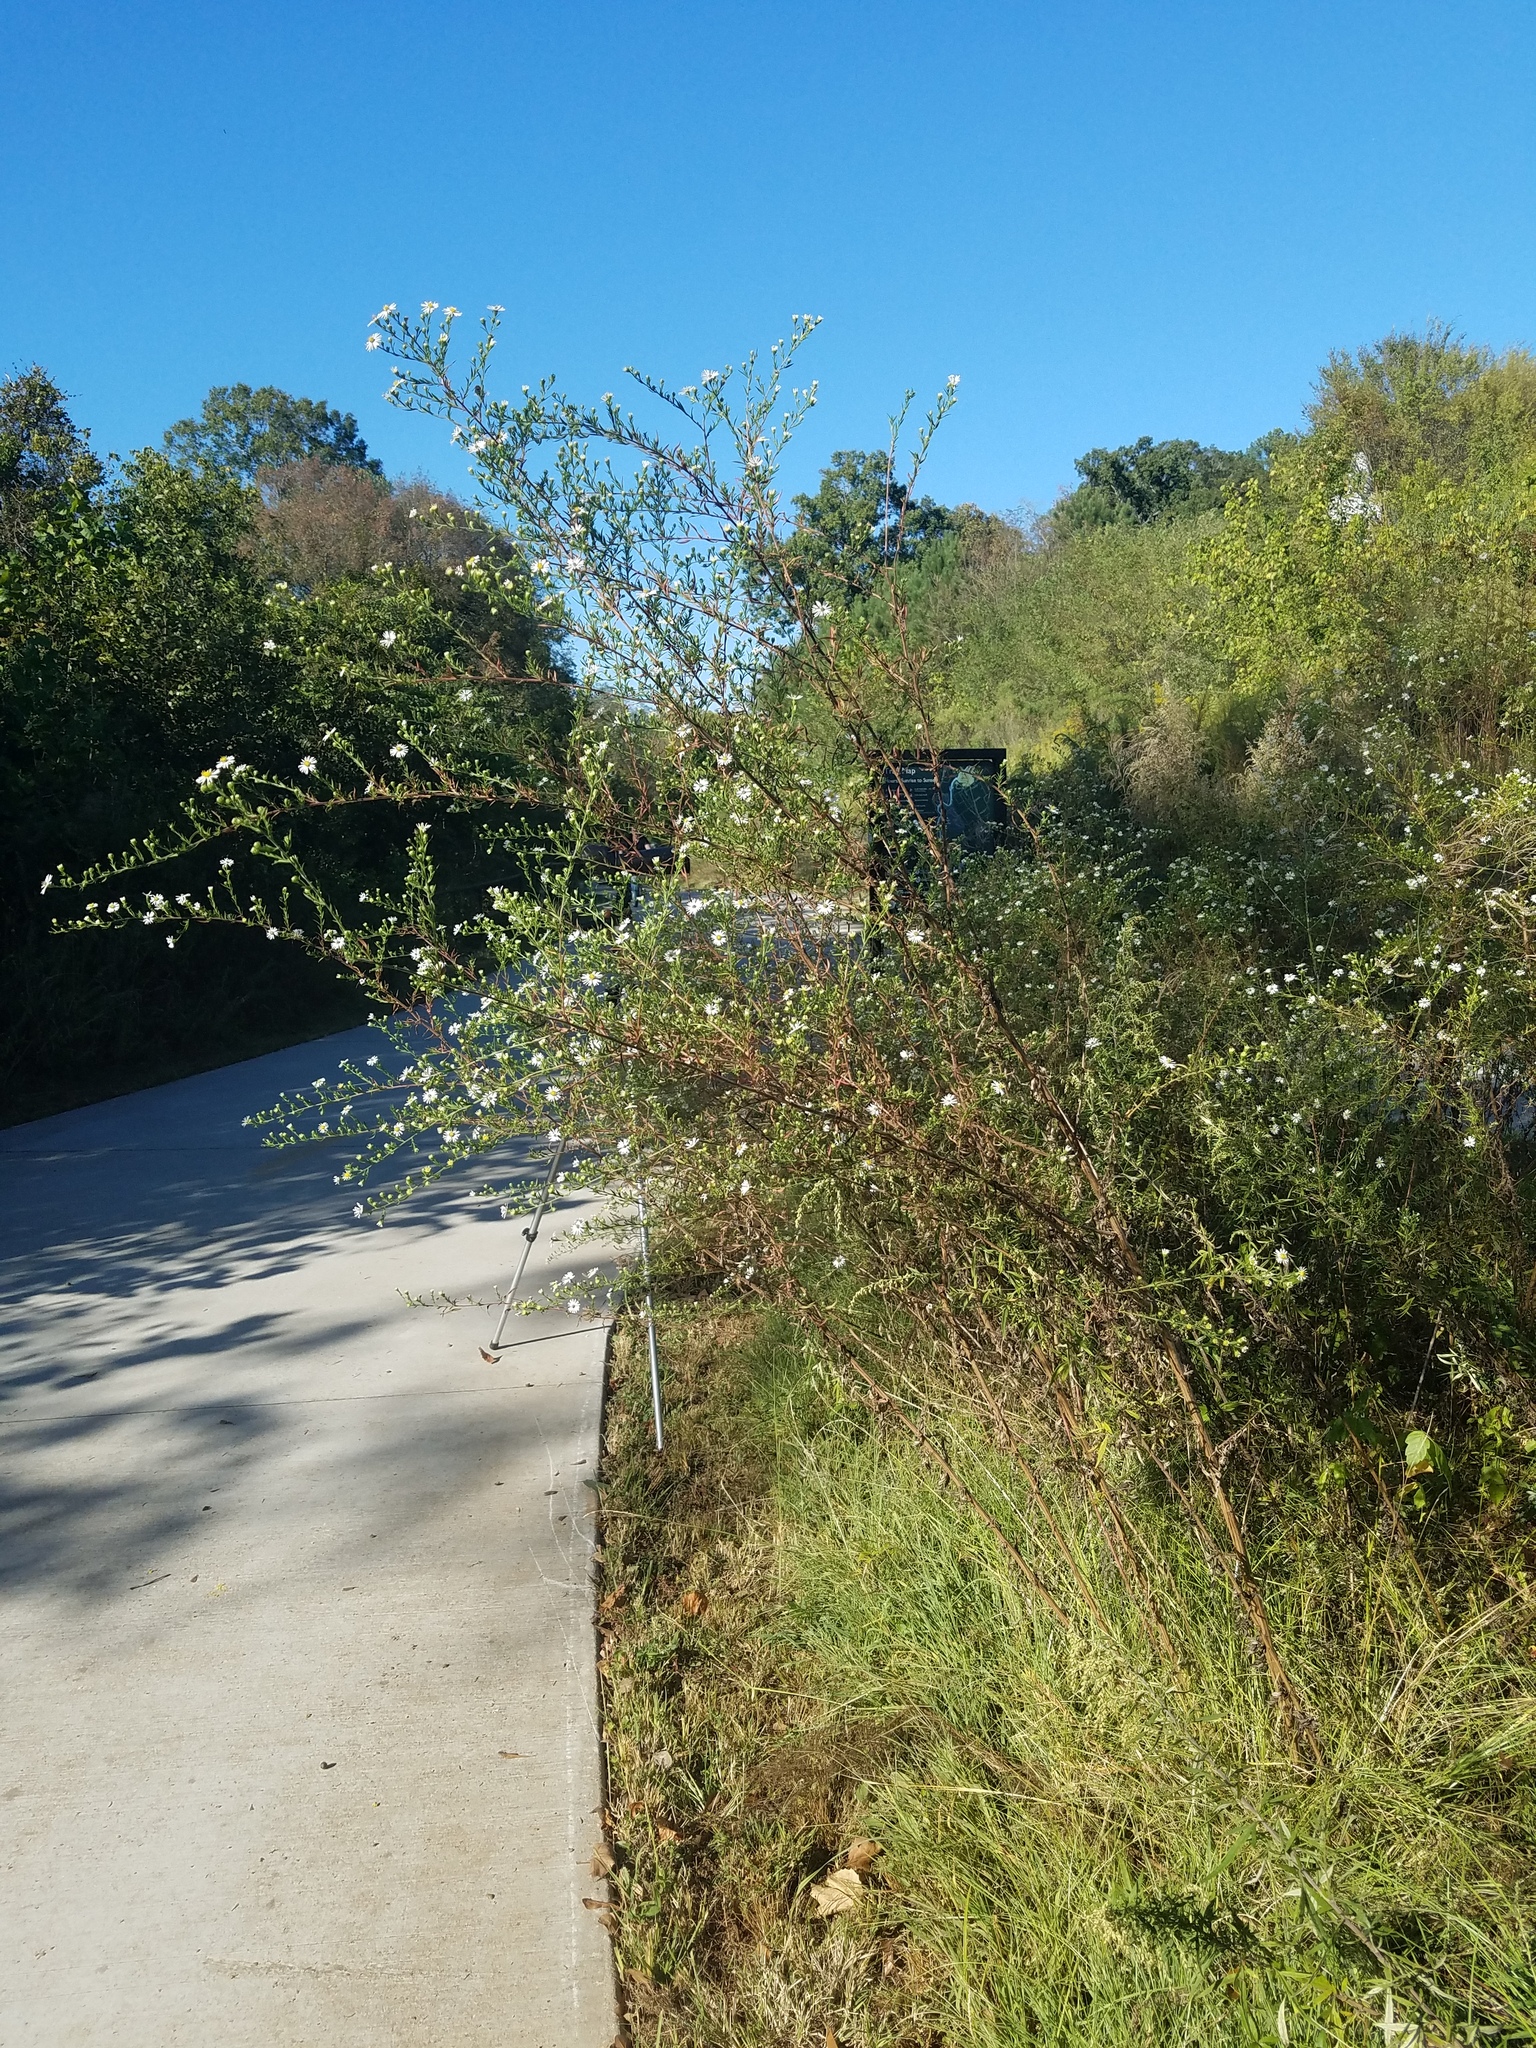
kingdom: Plantae
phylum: Tracheophyta
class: Magnoliopsida
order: Asterales
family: Asteraceae
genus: Symphyotrichum
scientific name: Symphyotrichum pilosum
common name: Awl aster
